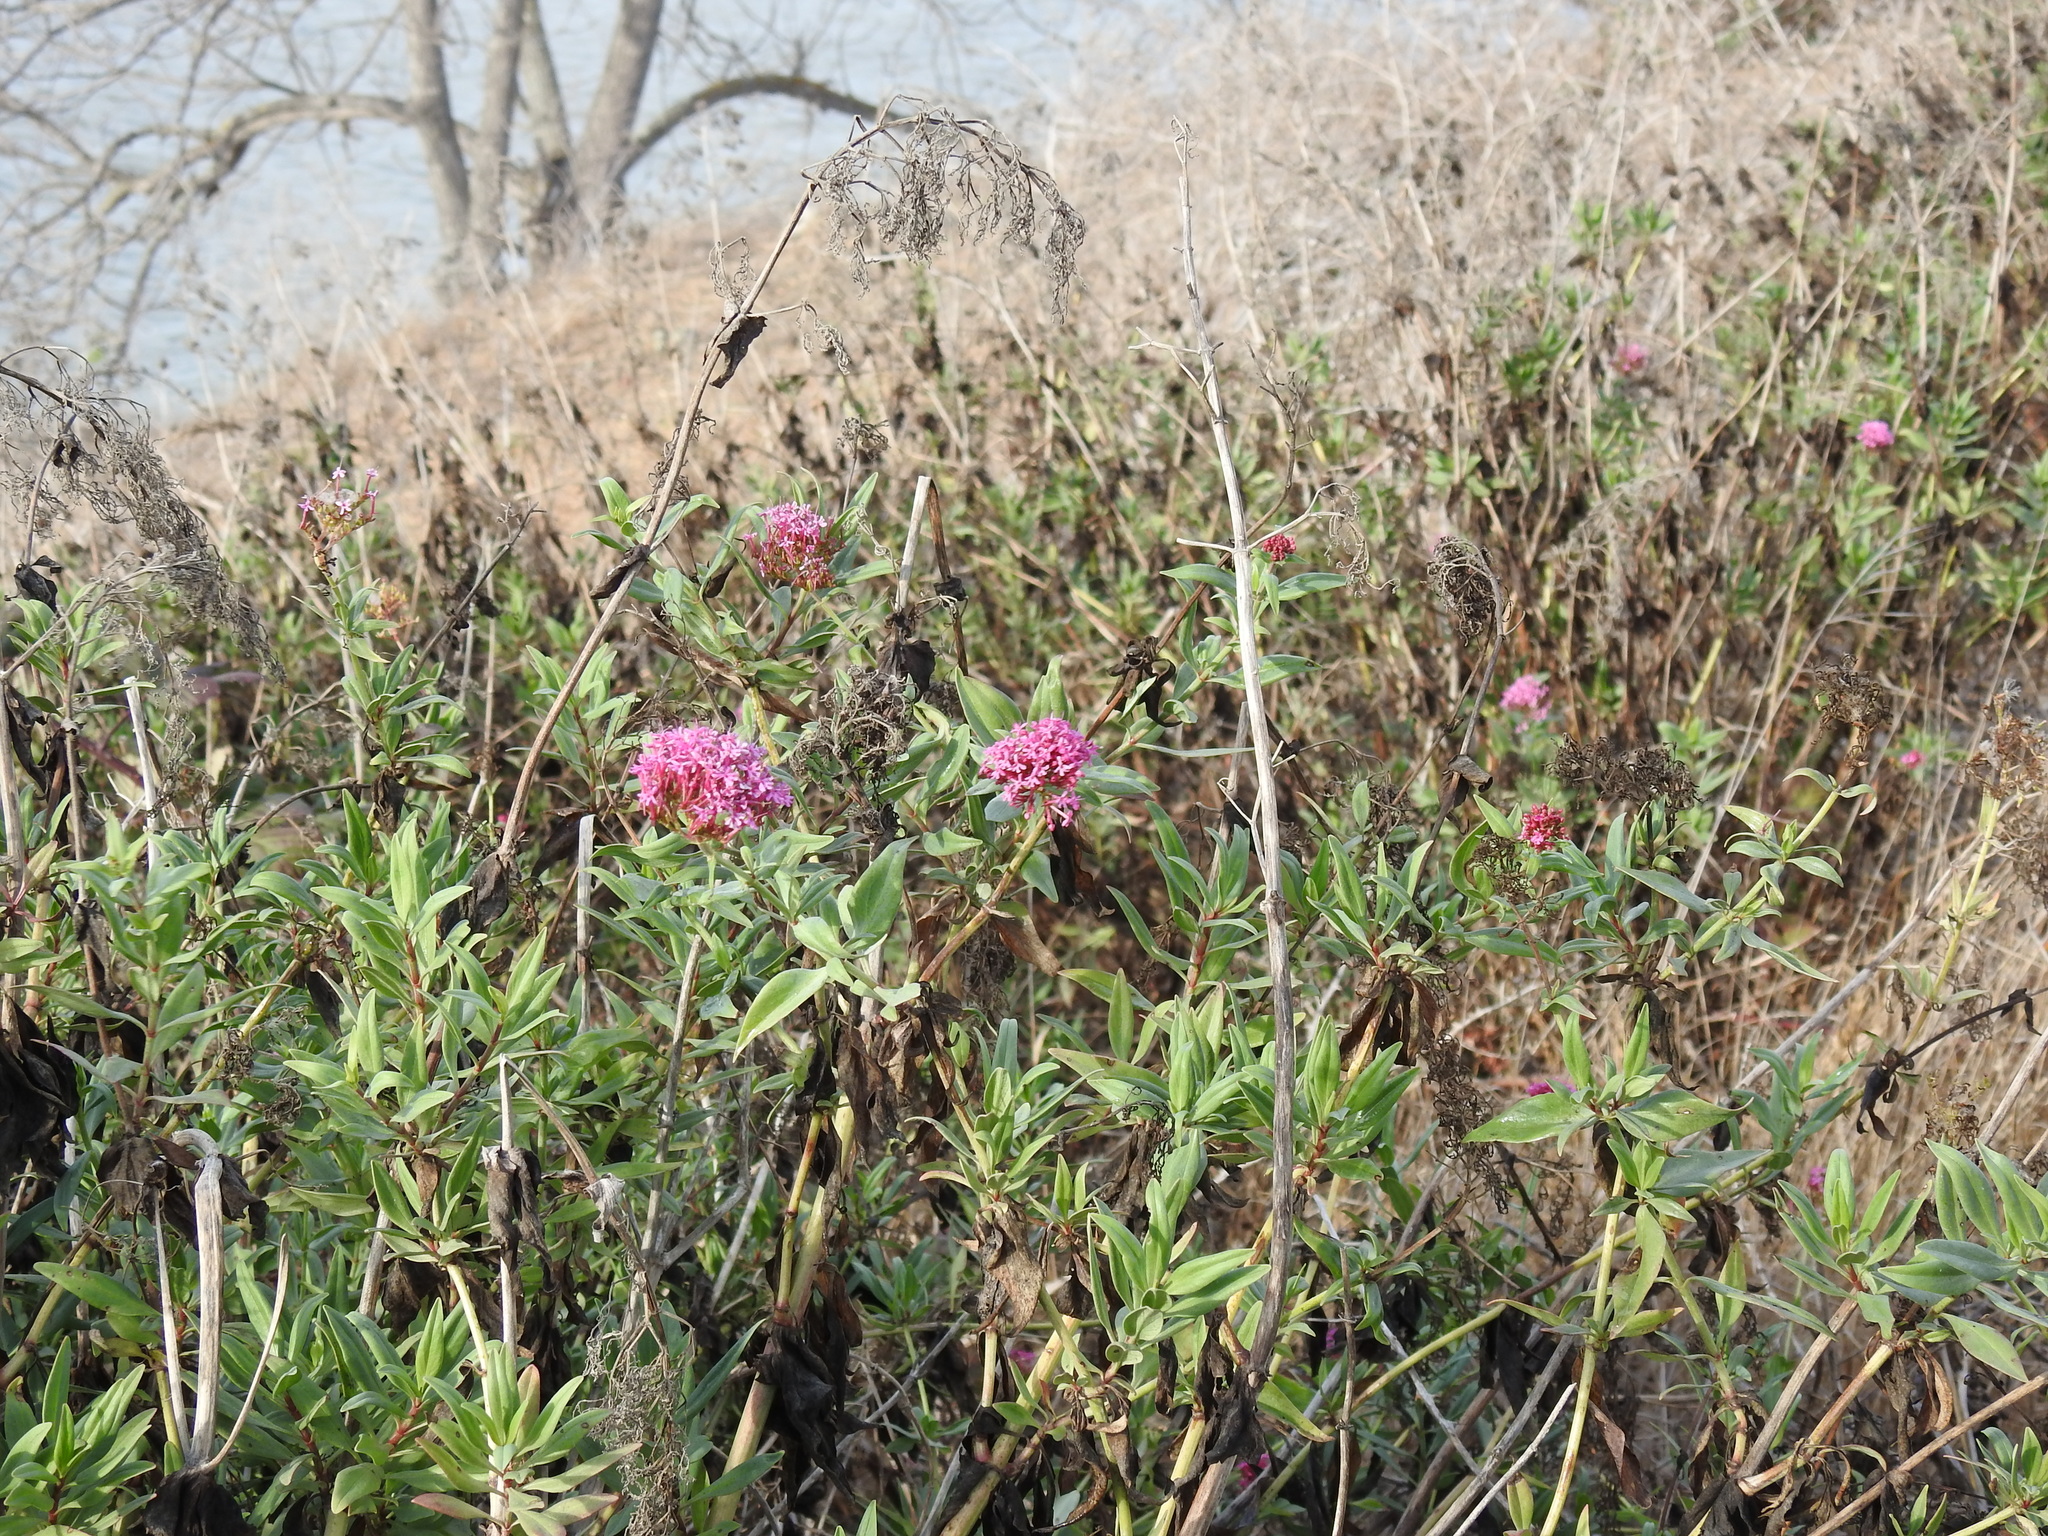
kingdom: Plantae
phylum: Tracheophyta
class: Magnoliopsida
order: Dipsacales
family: Caprifoliaceae
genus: Centranthus
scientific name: Centranthus ruber
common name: Red valerian
